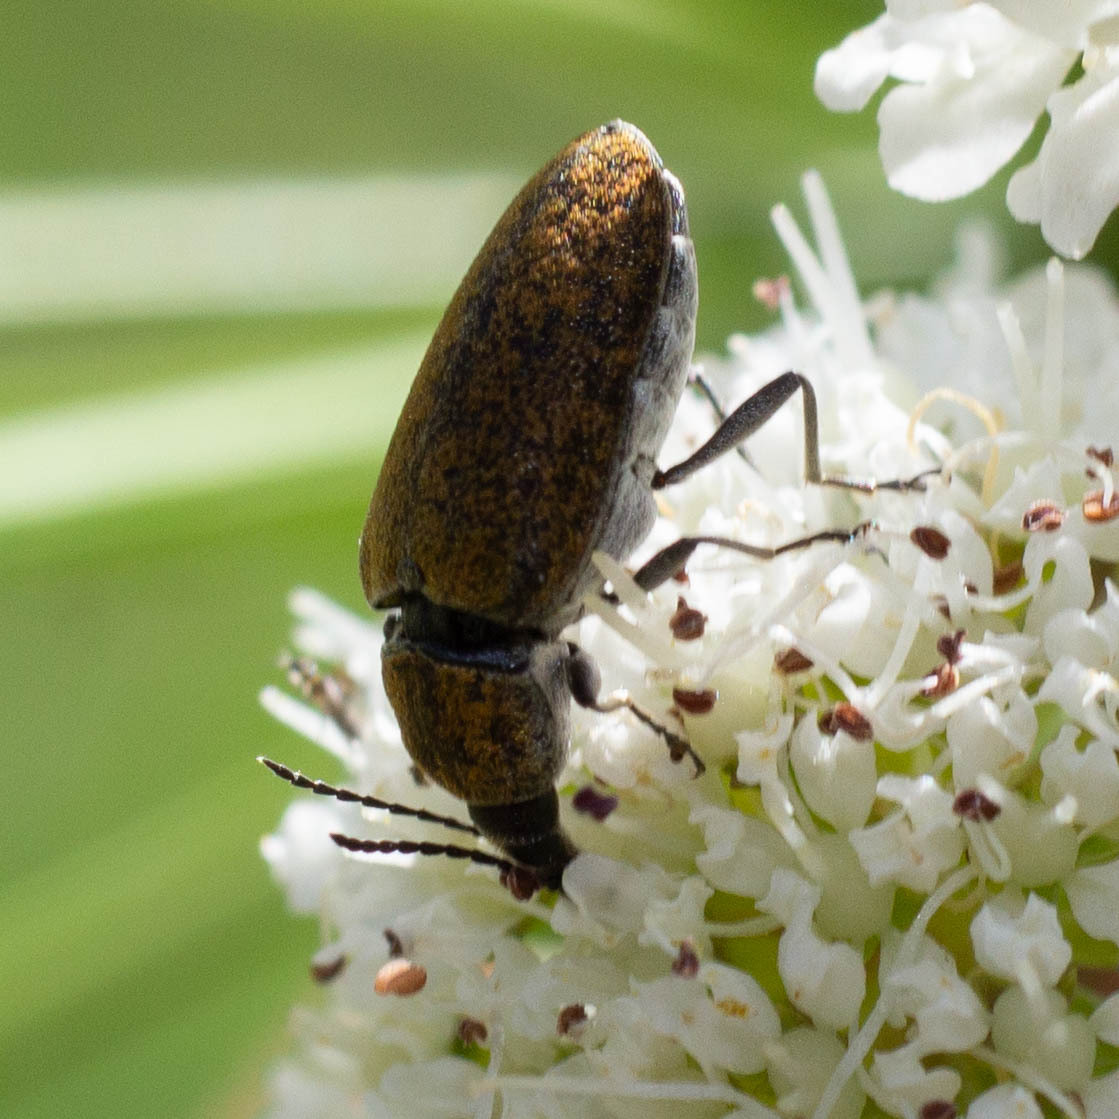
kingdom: Animalia
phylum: Arthropoda
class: Insecta
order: Coleoptera
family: Mycteridae
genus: Mycterus
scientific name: Mycterus curculioides
